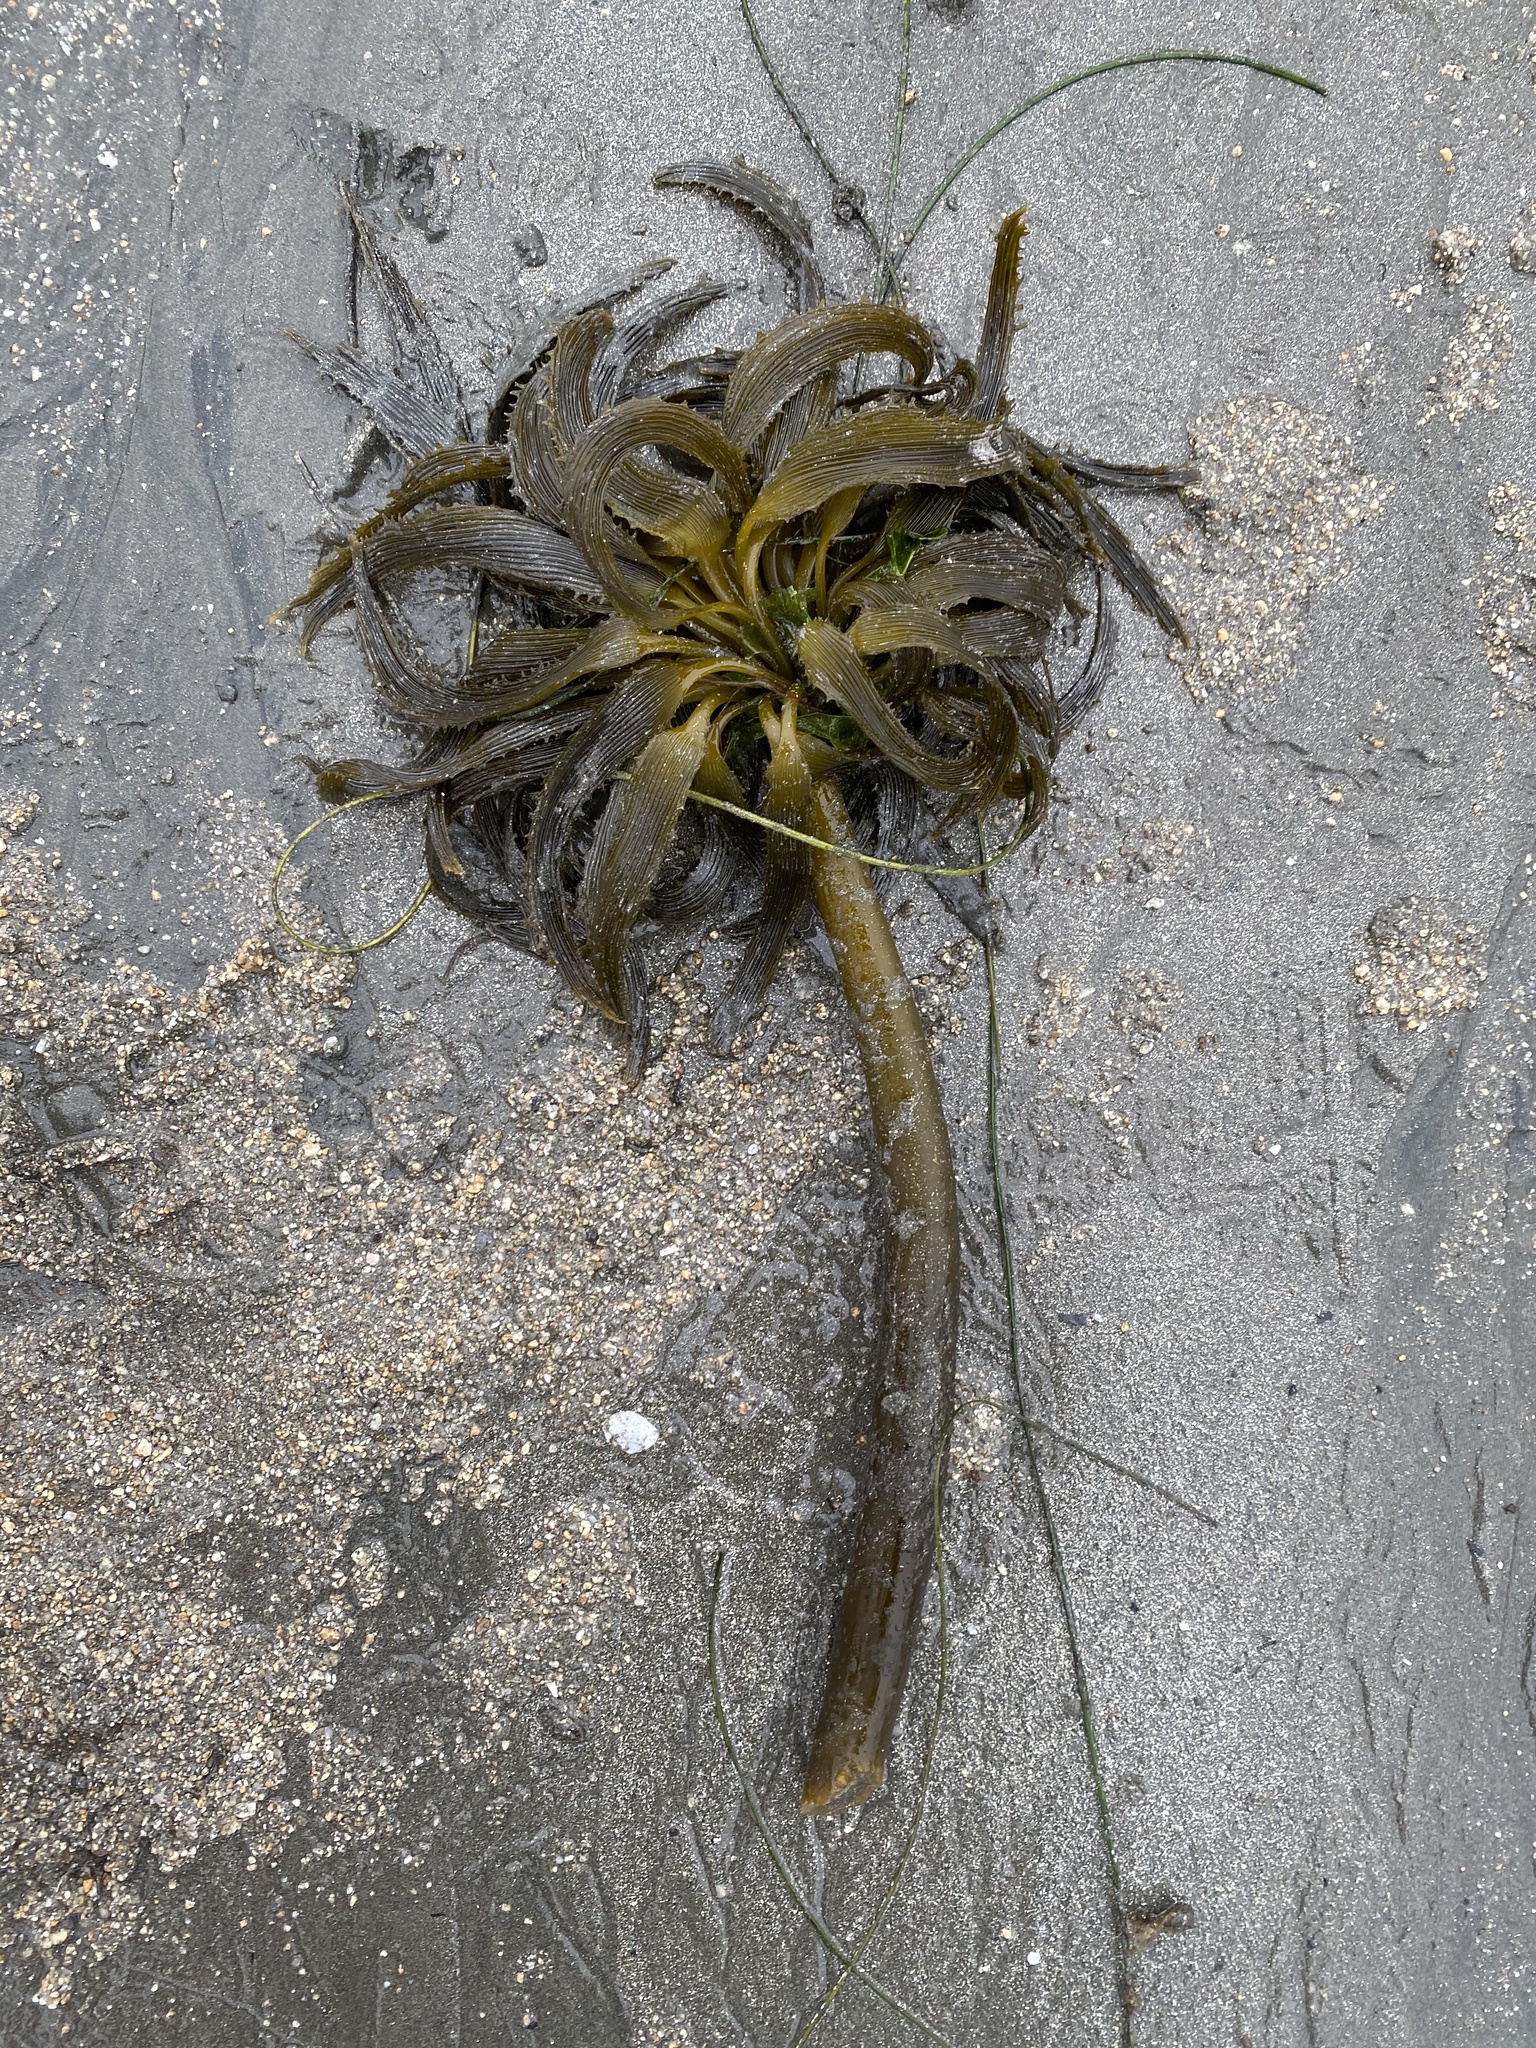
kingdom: Chromista
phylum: Ochrophyta
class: Phaeophyceae
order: Laminariales
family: Laminariaceae
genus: Postelsia
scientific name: Postelsia palmiformis
